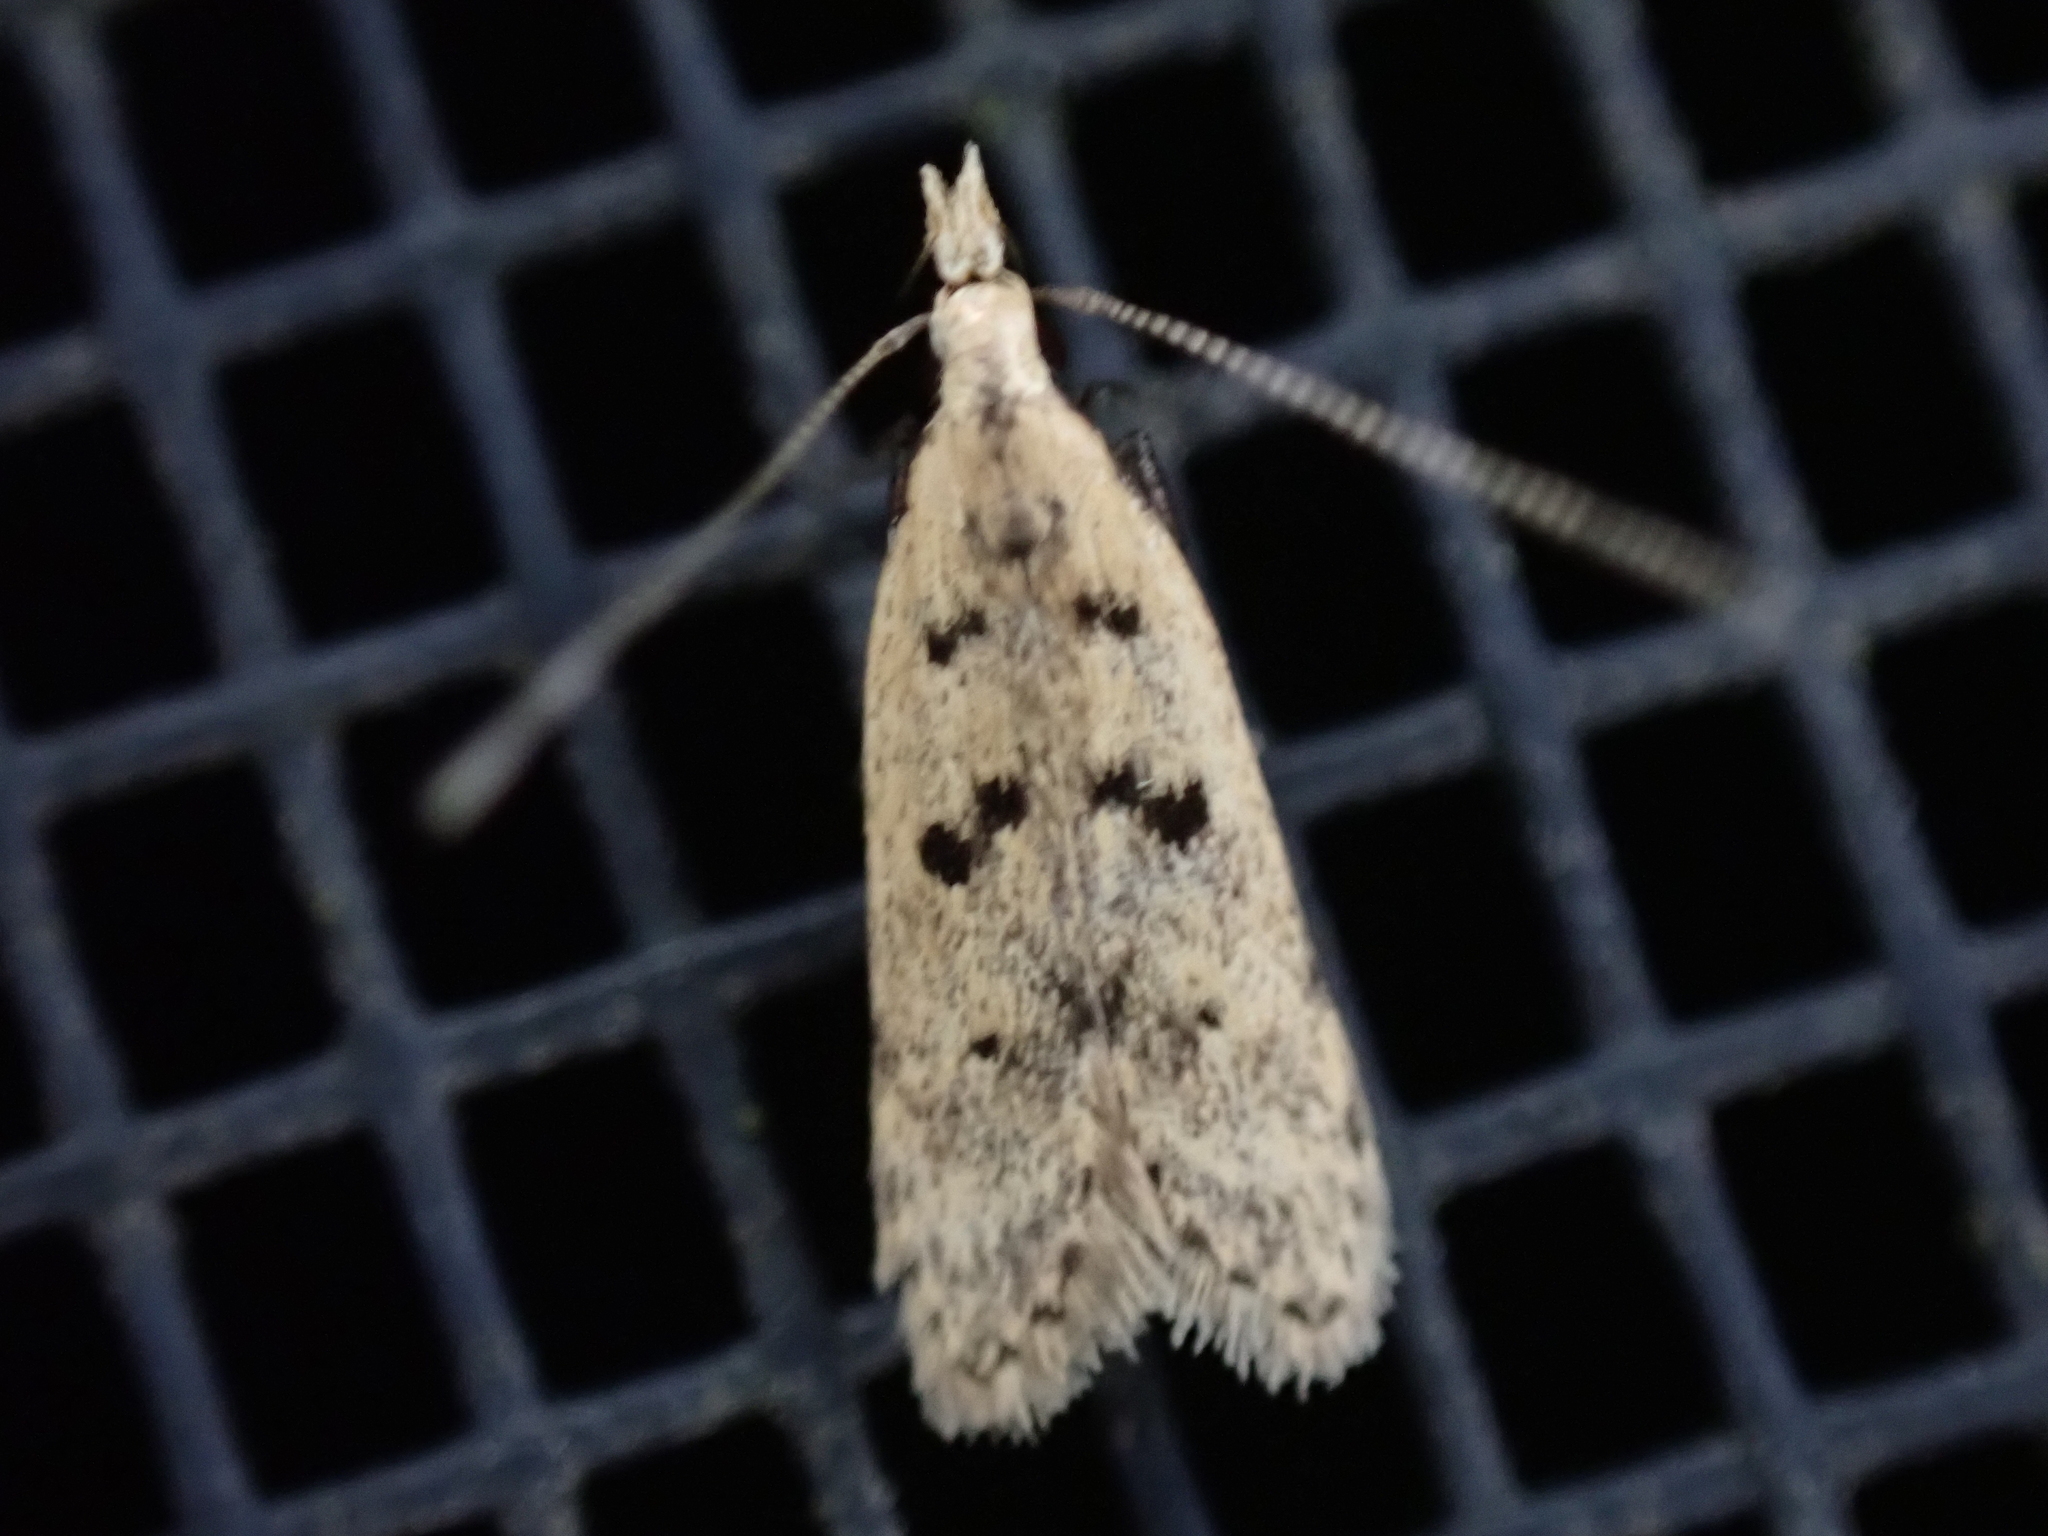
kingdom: Animalia
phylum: Arthropoda
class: Insecta
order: Lepidoptera
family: Gelechiidae
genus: Dichomeris
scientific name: Dichomeris punctipennella
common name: Many-spotted dichomeris moth
